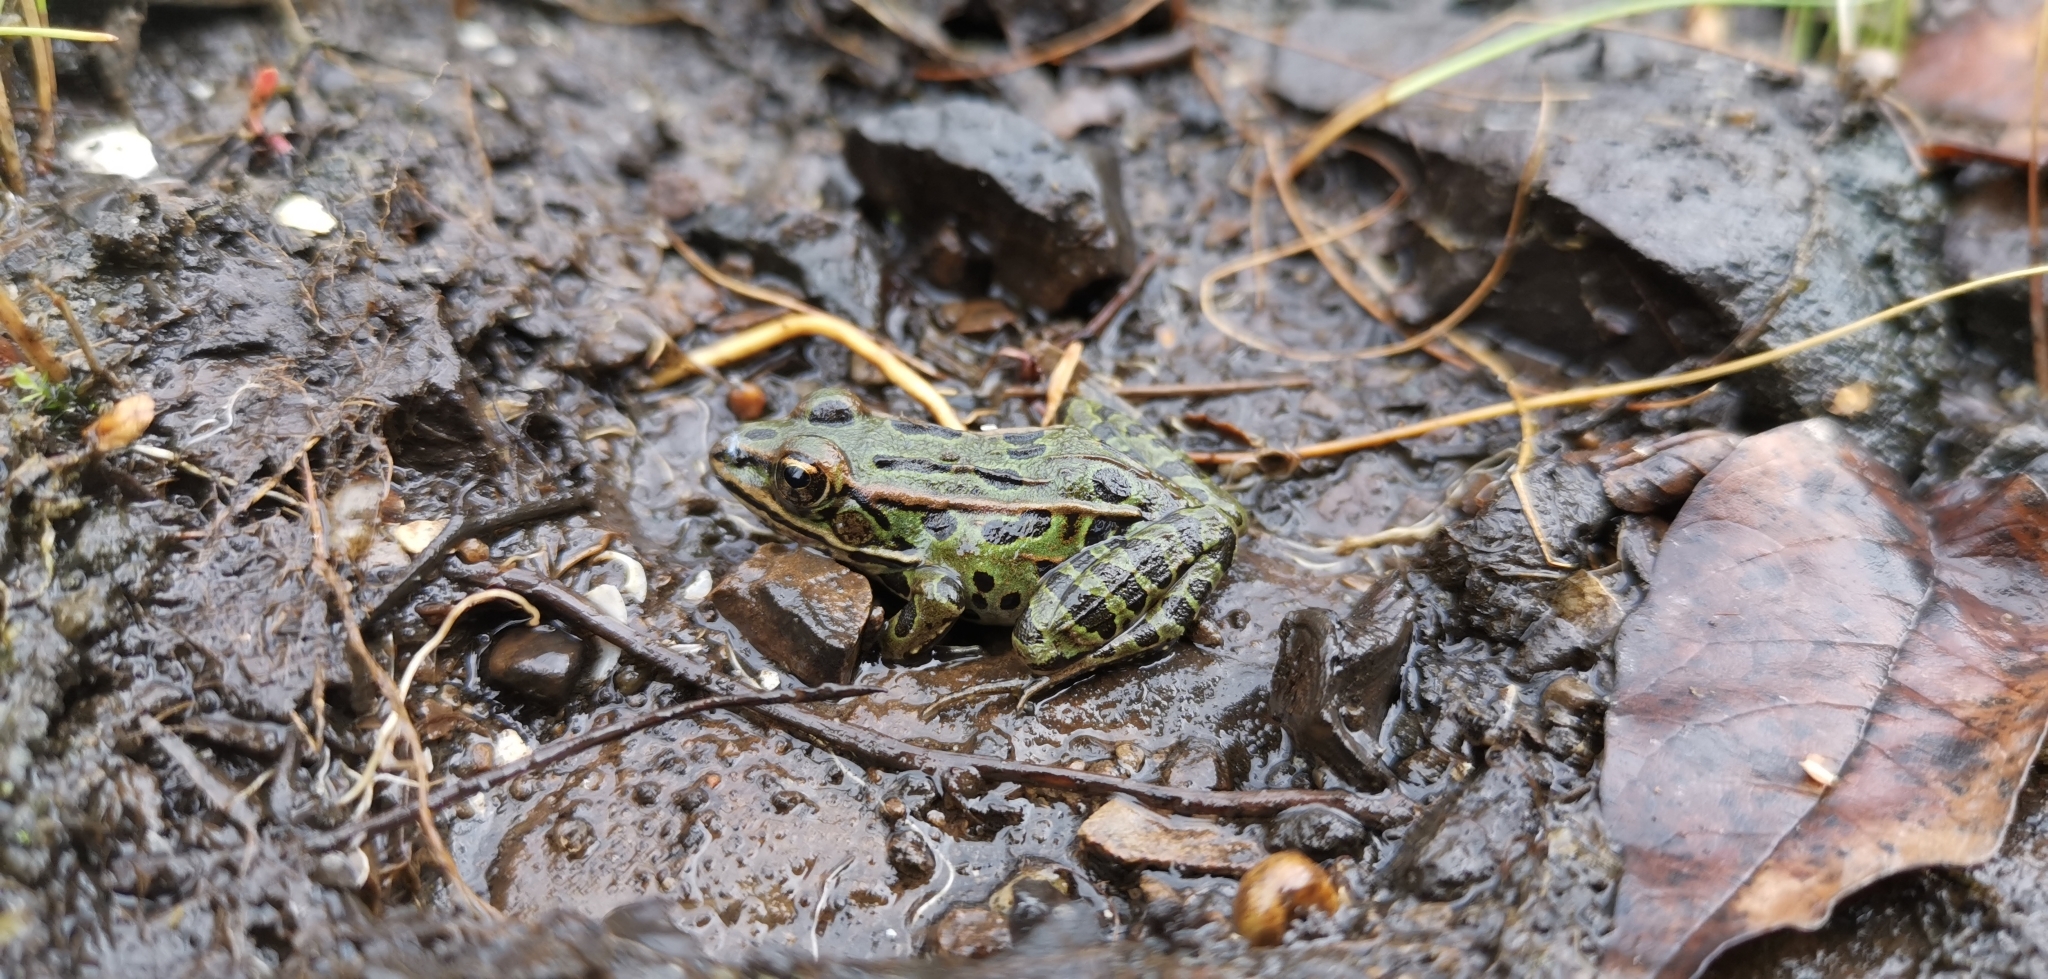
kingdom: Animalia
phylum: Chordata
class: Amphibia
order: Anura
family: Ranidae
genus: Lithobates
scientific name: Lithobates pipiens
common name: Northern leopard frog
